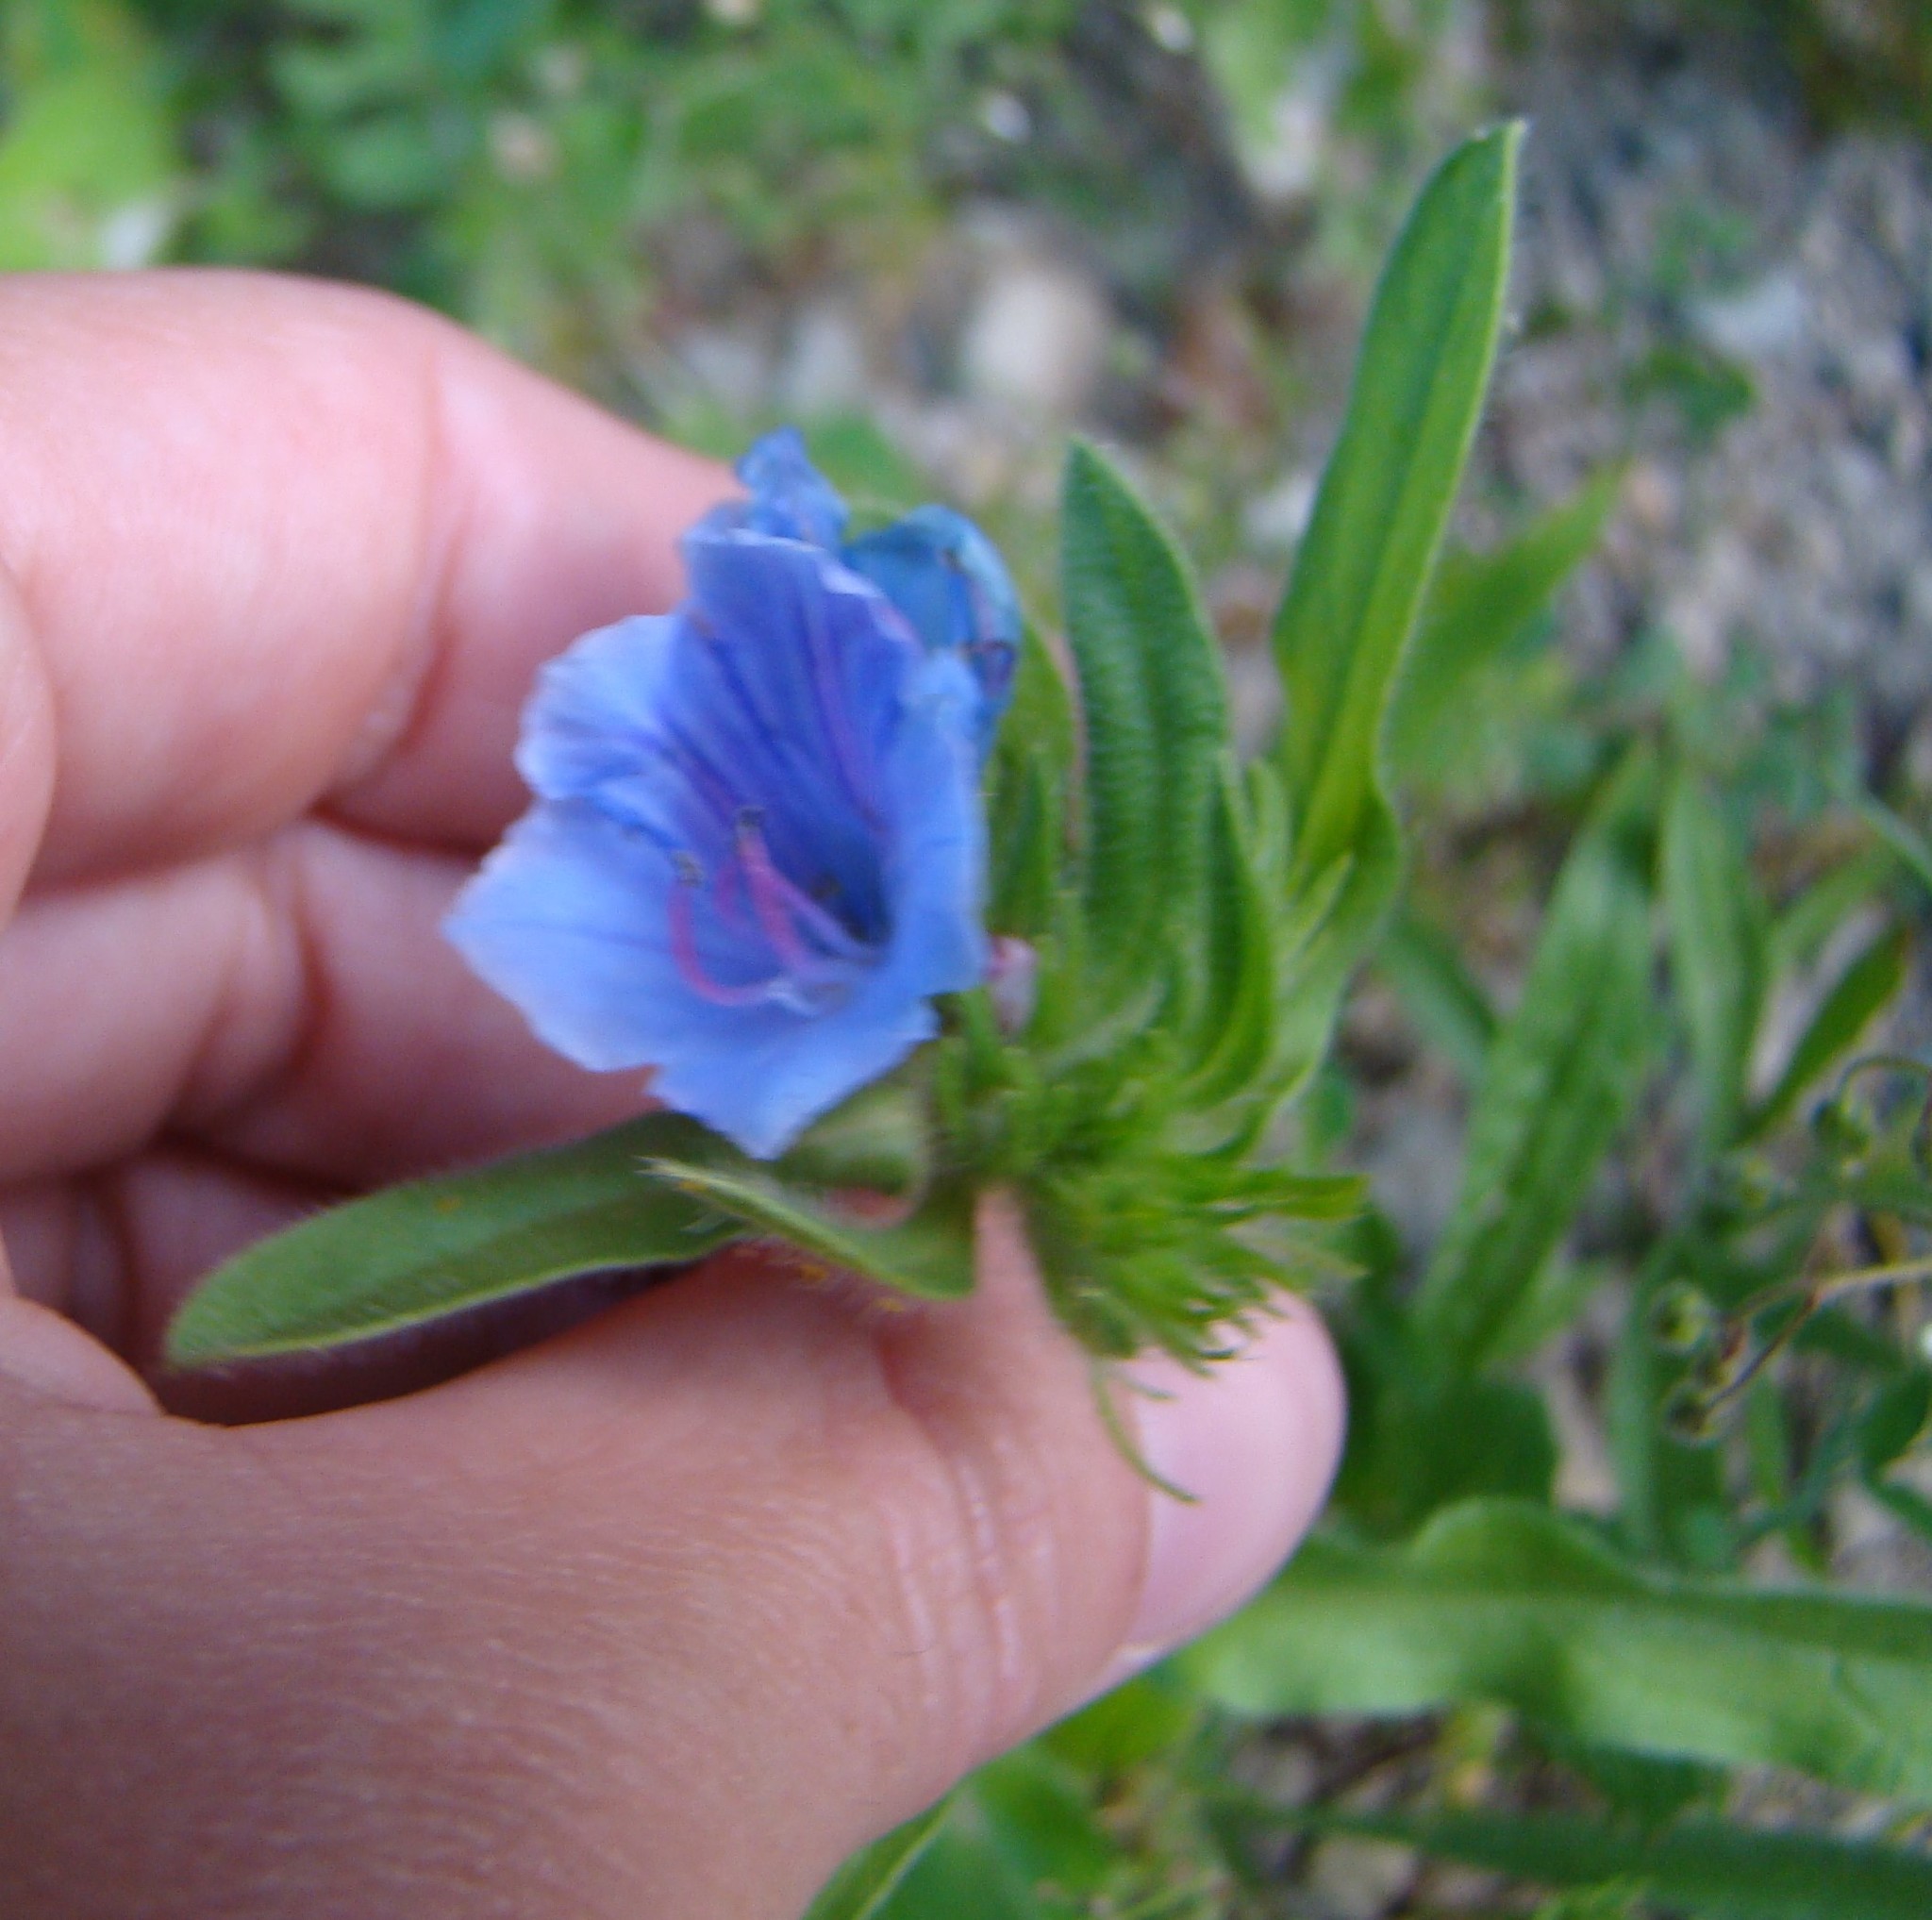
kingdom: Plantae
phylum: Tracheophyta
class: Magnoliopsida
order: Boraginales
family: Boraginaceae
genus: Echium
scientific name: Echium vulgare
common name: Common viper's bugloss
